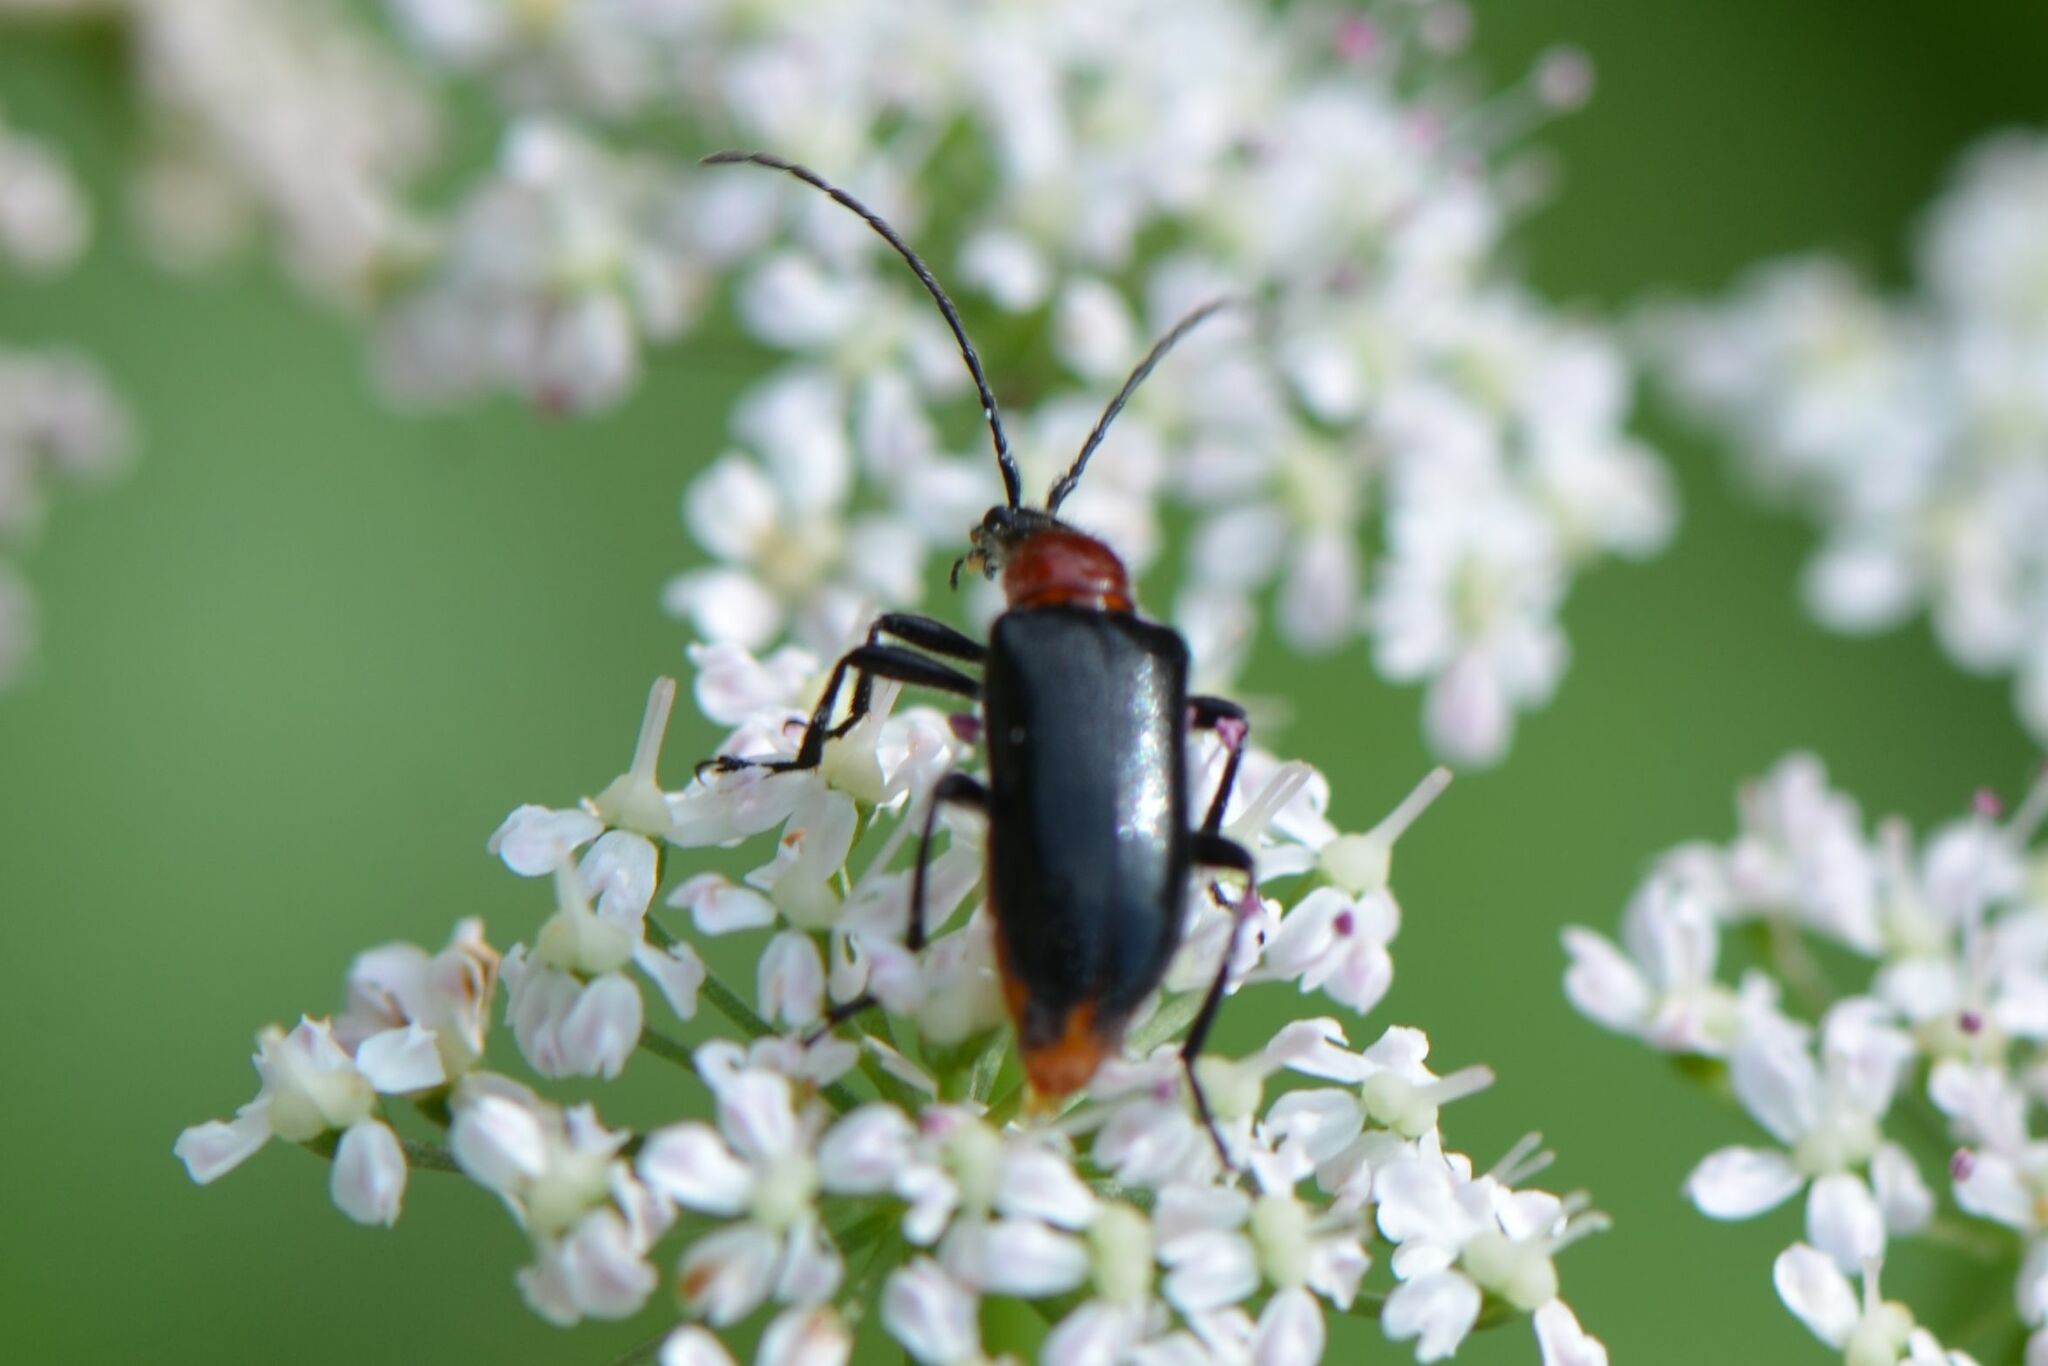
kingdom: Animalia
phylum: Arthropoda
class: Insecta
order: Coleoptera
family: Cerambycidae
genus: Dinoptera
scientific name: Dinoptera collaris
